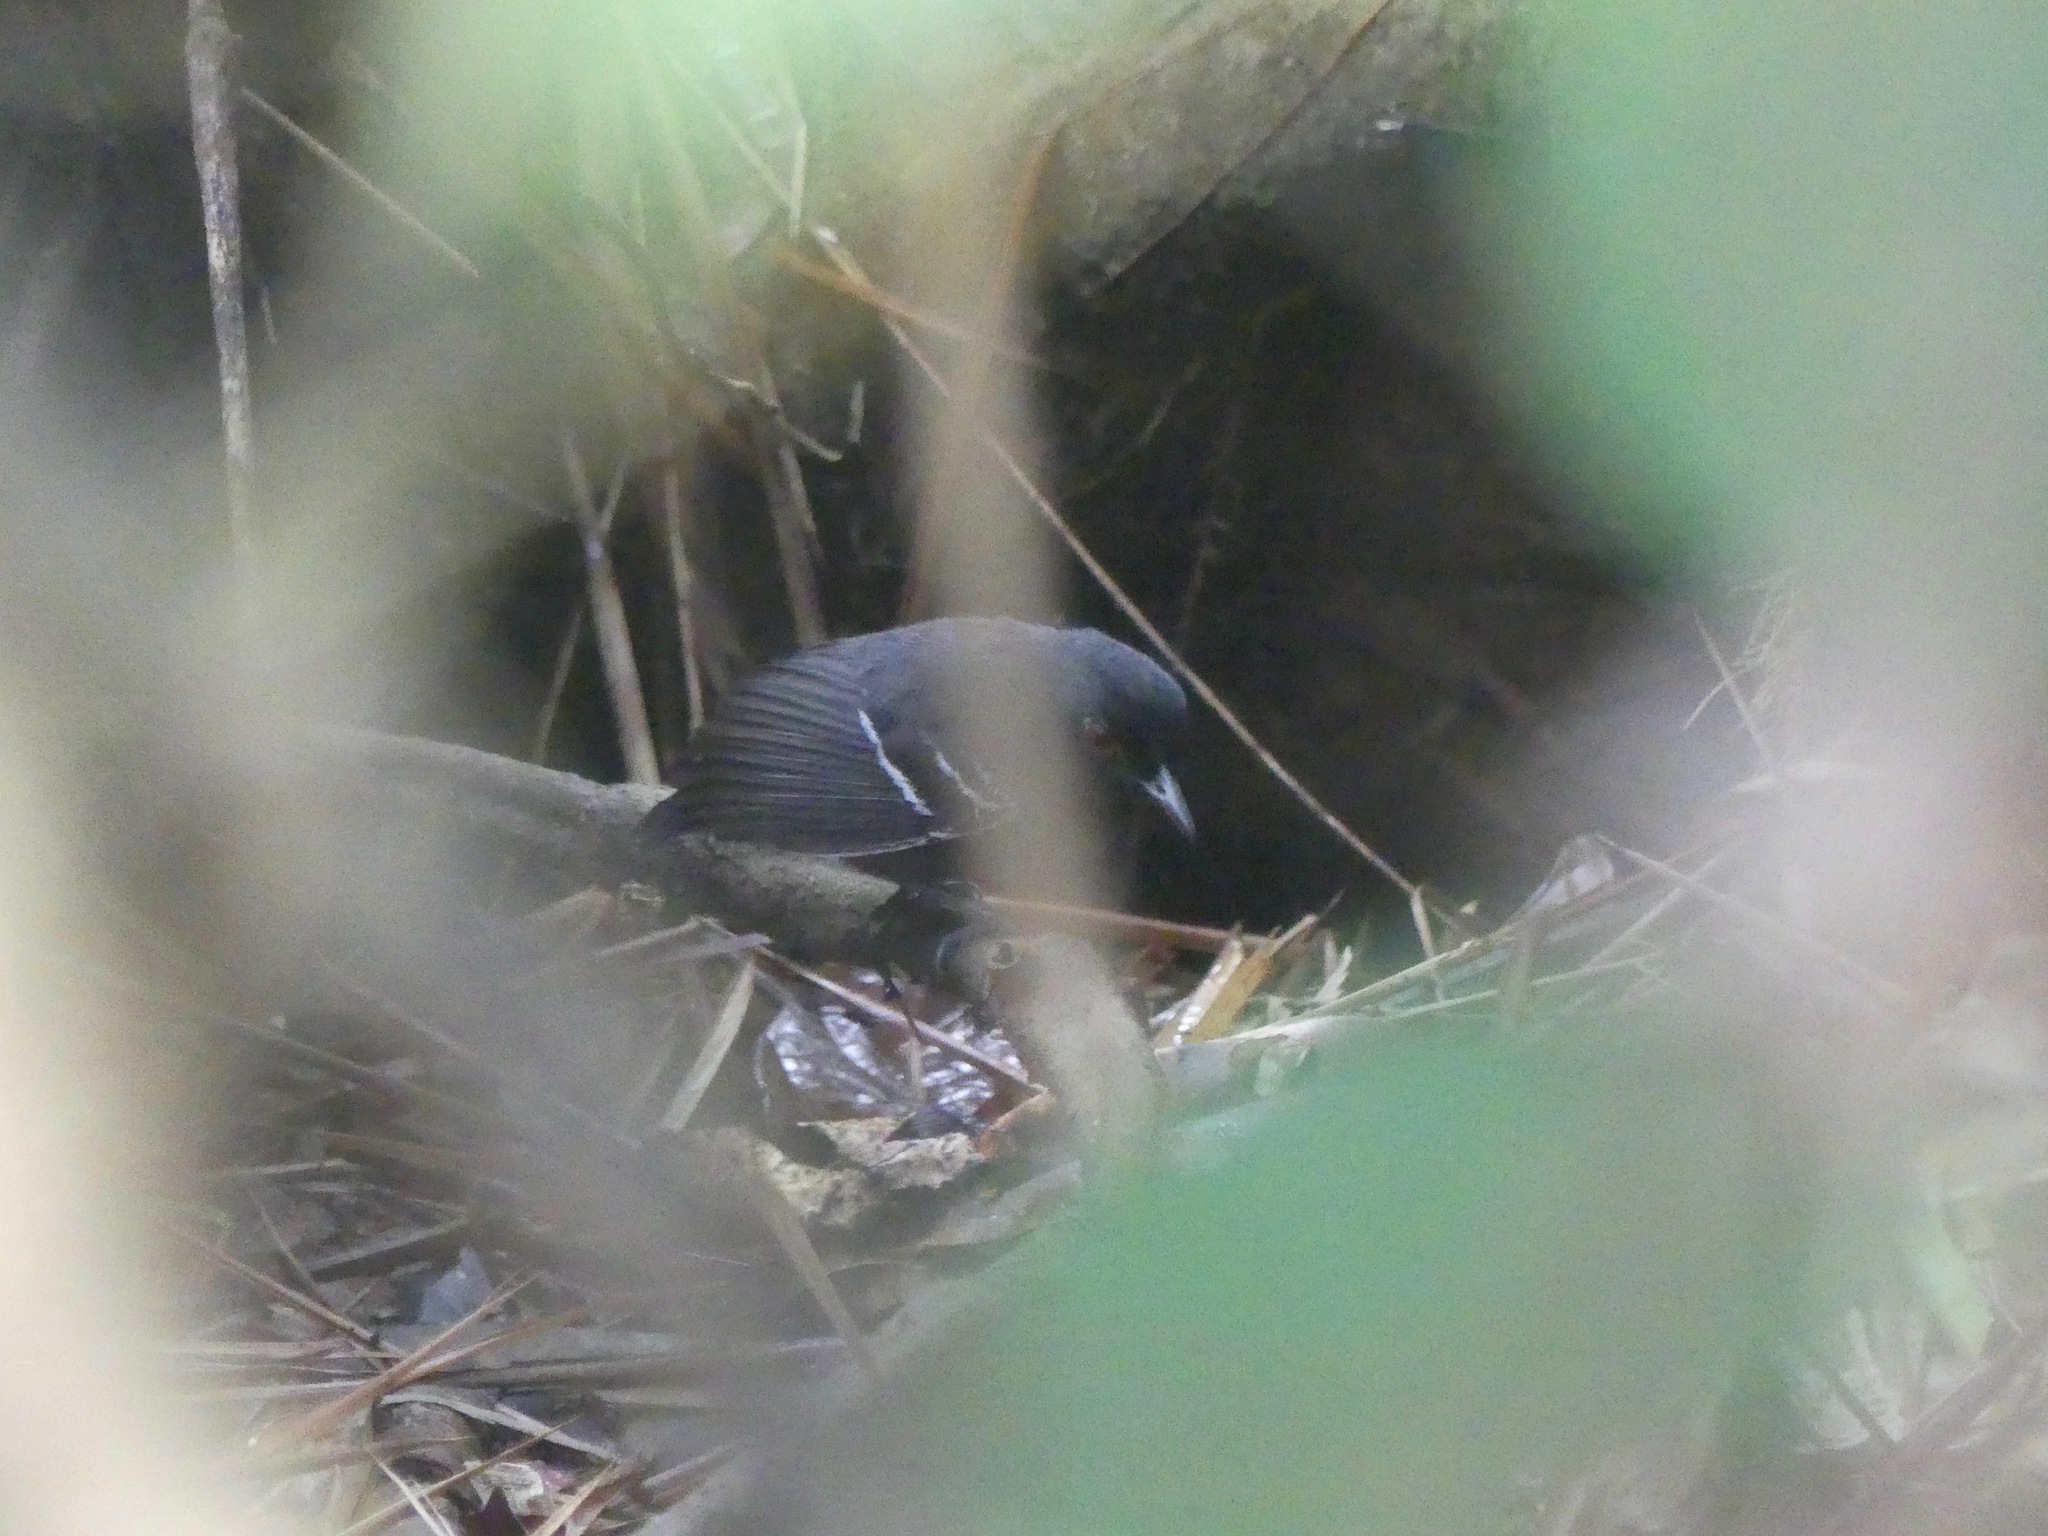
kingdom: Animalia
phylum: Chordata
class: Aves
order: Passeriformes
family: Thamnophilidae
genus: Myrmoborus
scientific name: Myrmoborus melanurus
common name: Black-tailed antbird
